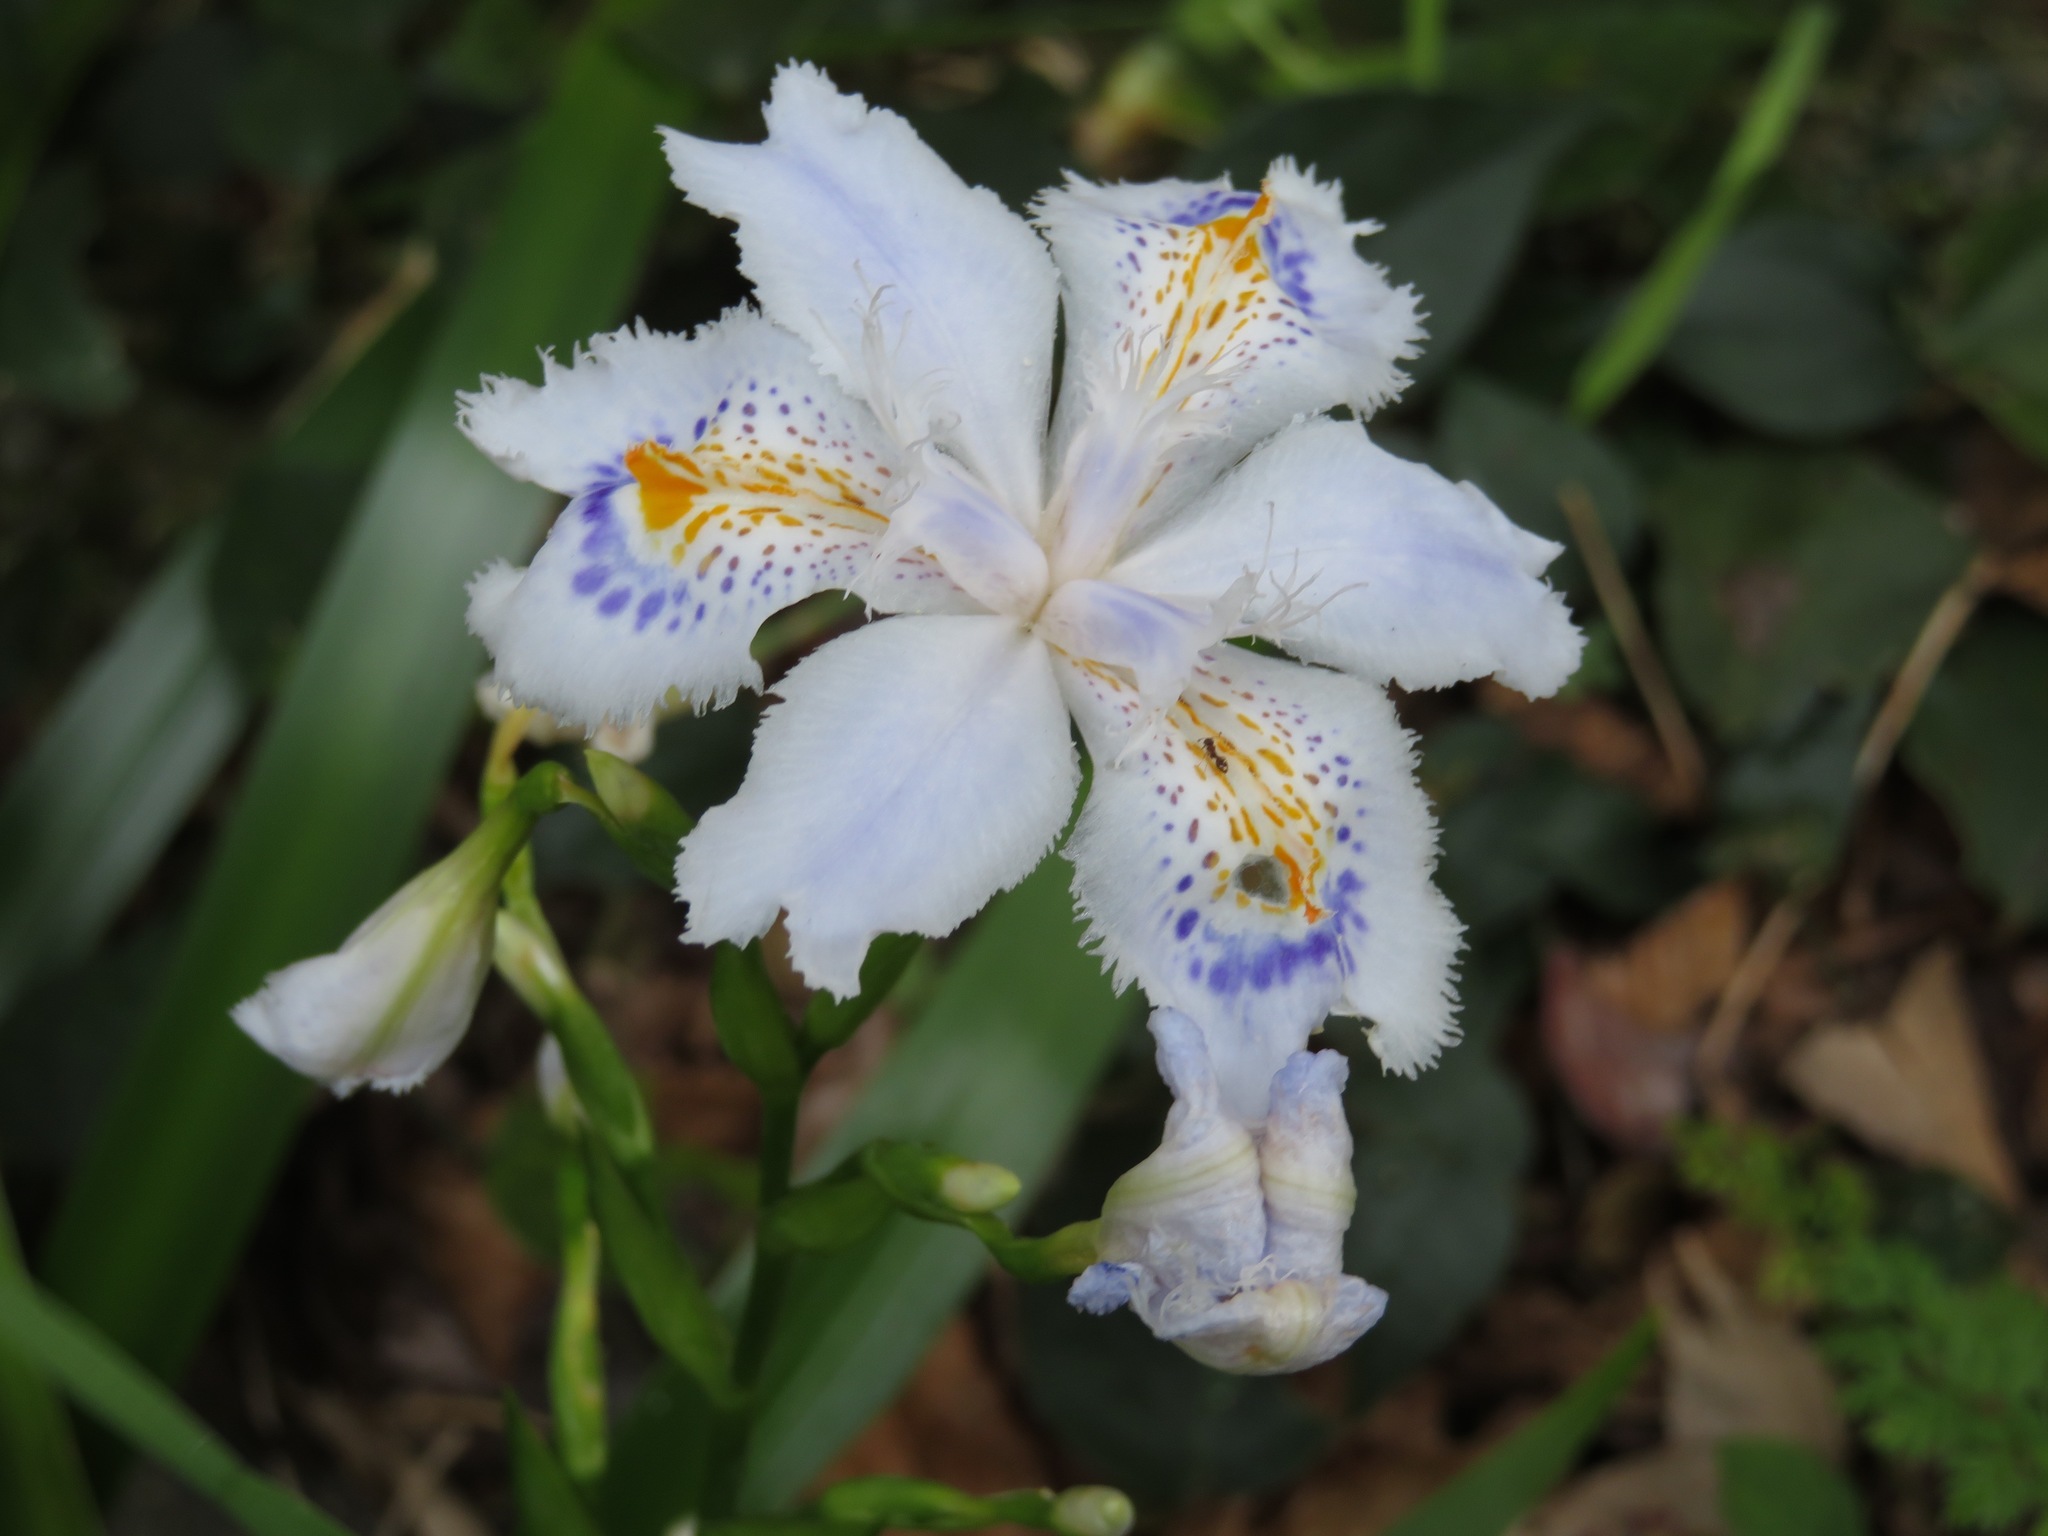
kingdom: Plantae
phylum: Tracheophyta
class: Liliopsida
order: Asparagales
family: Iridaceae
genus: Iris
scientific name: Iris japonica
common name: Butterfly-flower
